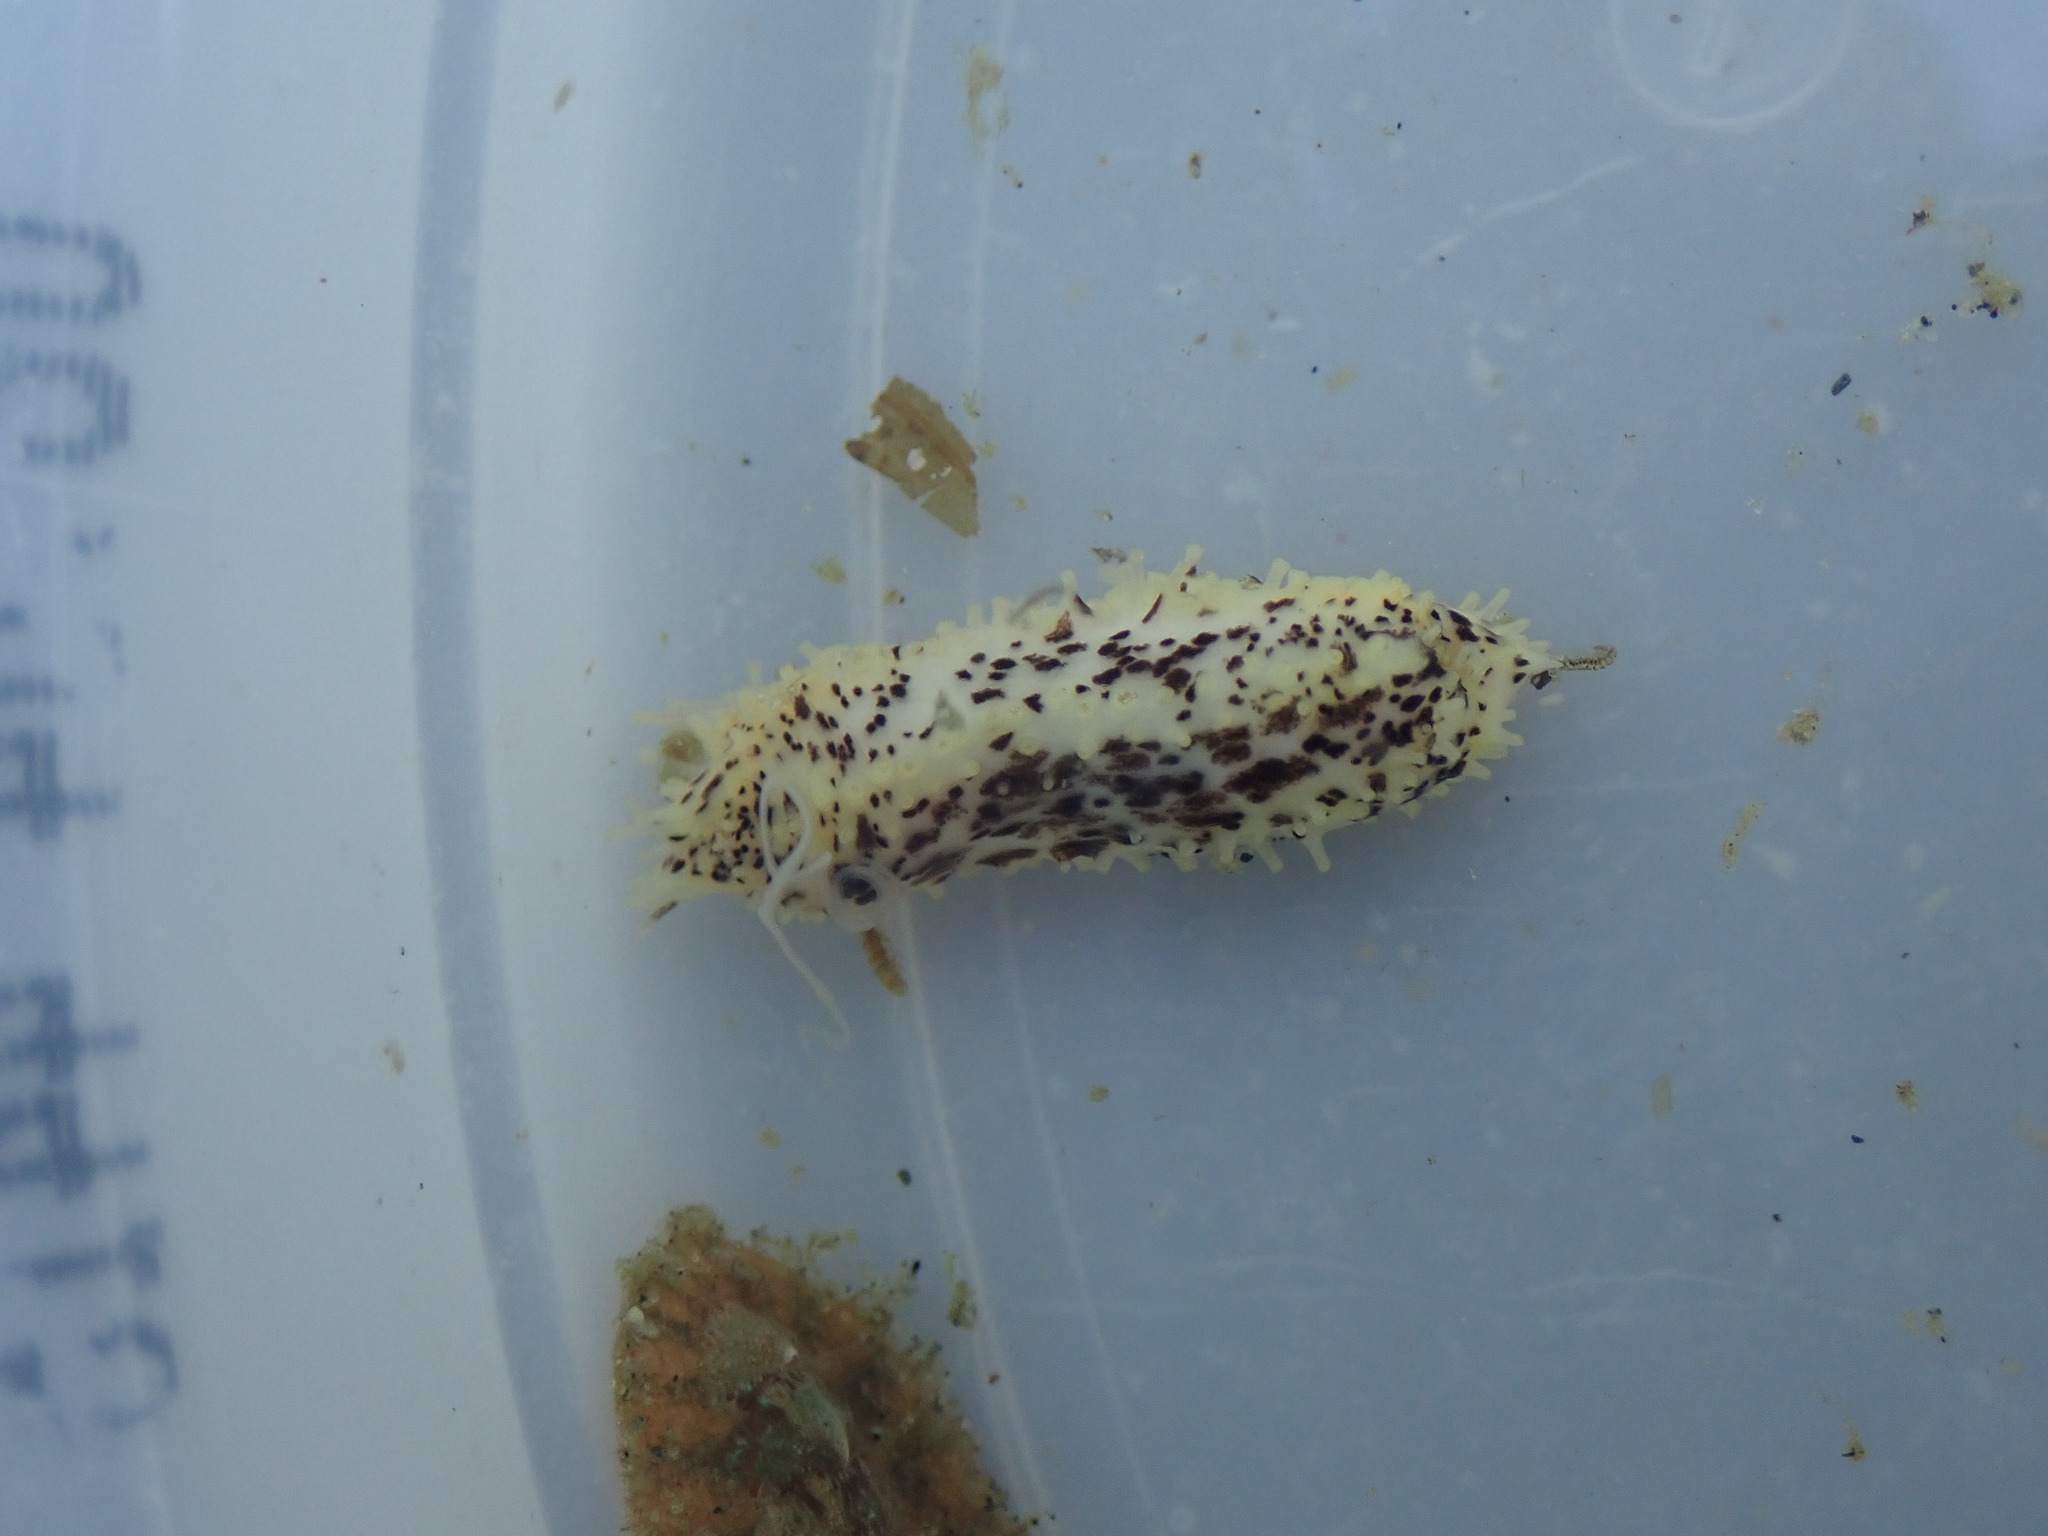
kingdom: Animalia
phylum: Echinodermata
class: Holothuroidea
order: Dendrochirotida
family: Cucumariidae
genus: Cucumaria
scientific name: Cucumaria piperata
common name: Peppered sea cucumber
